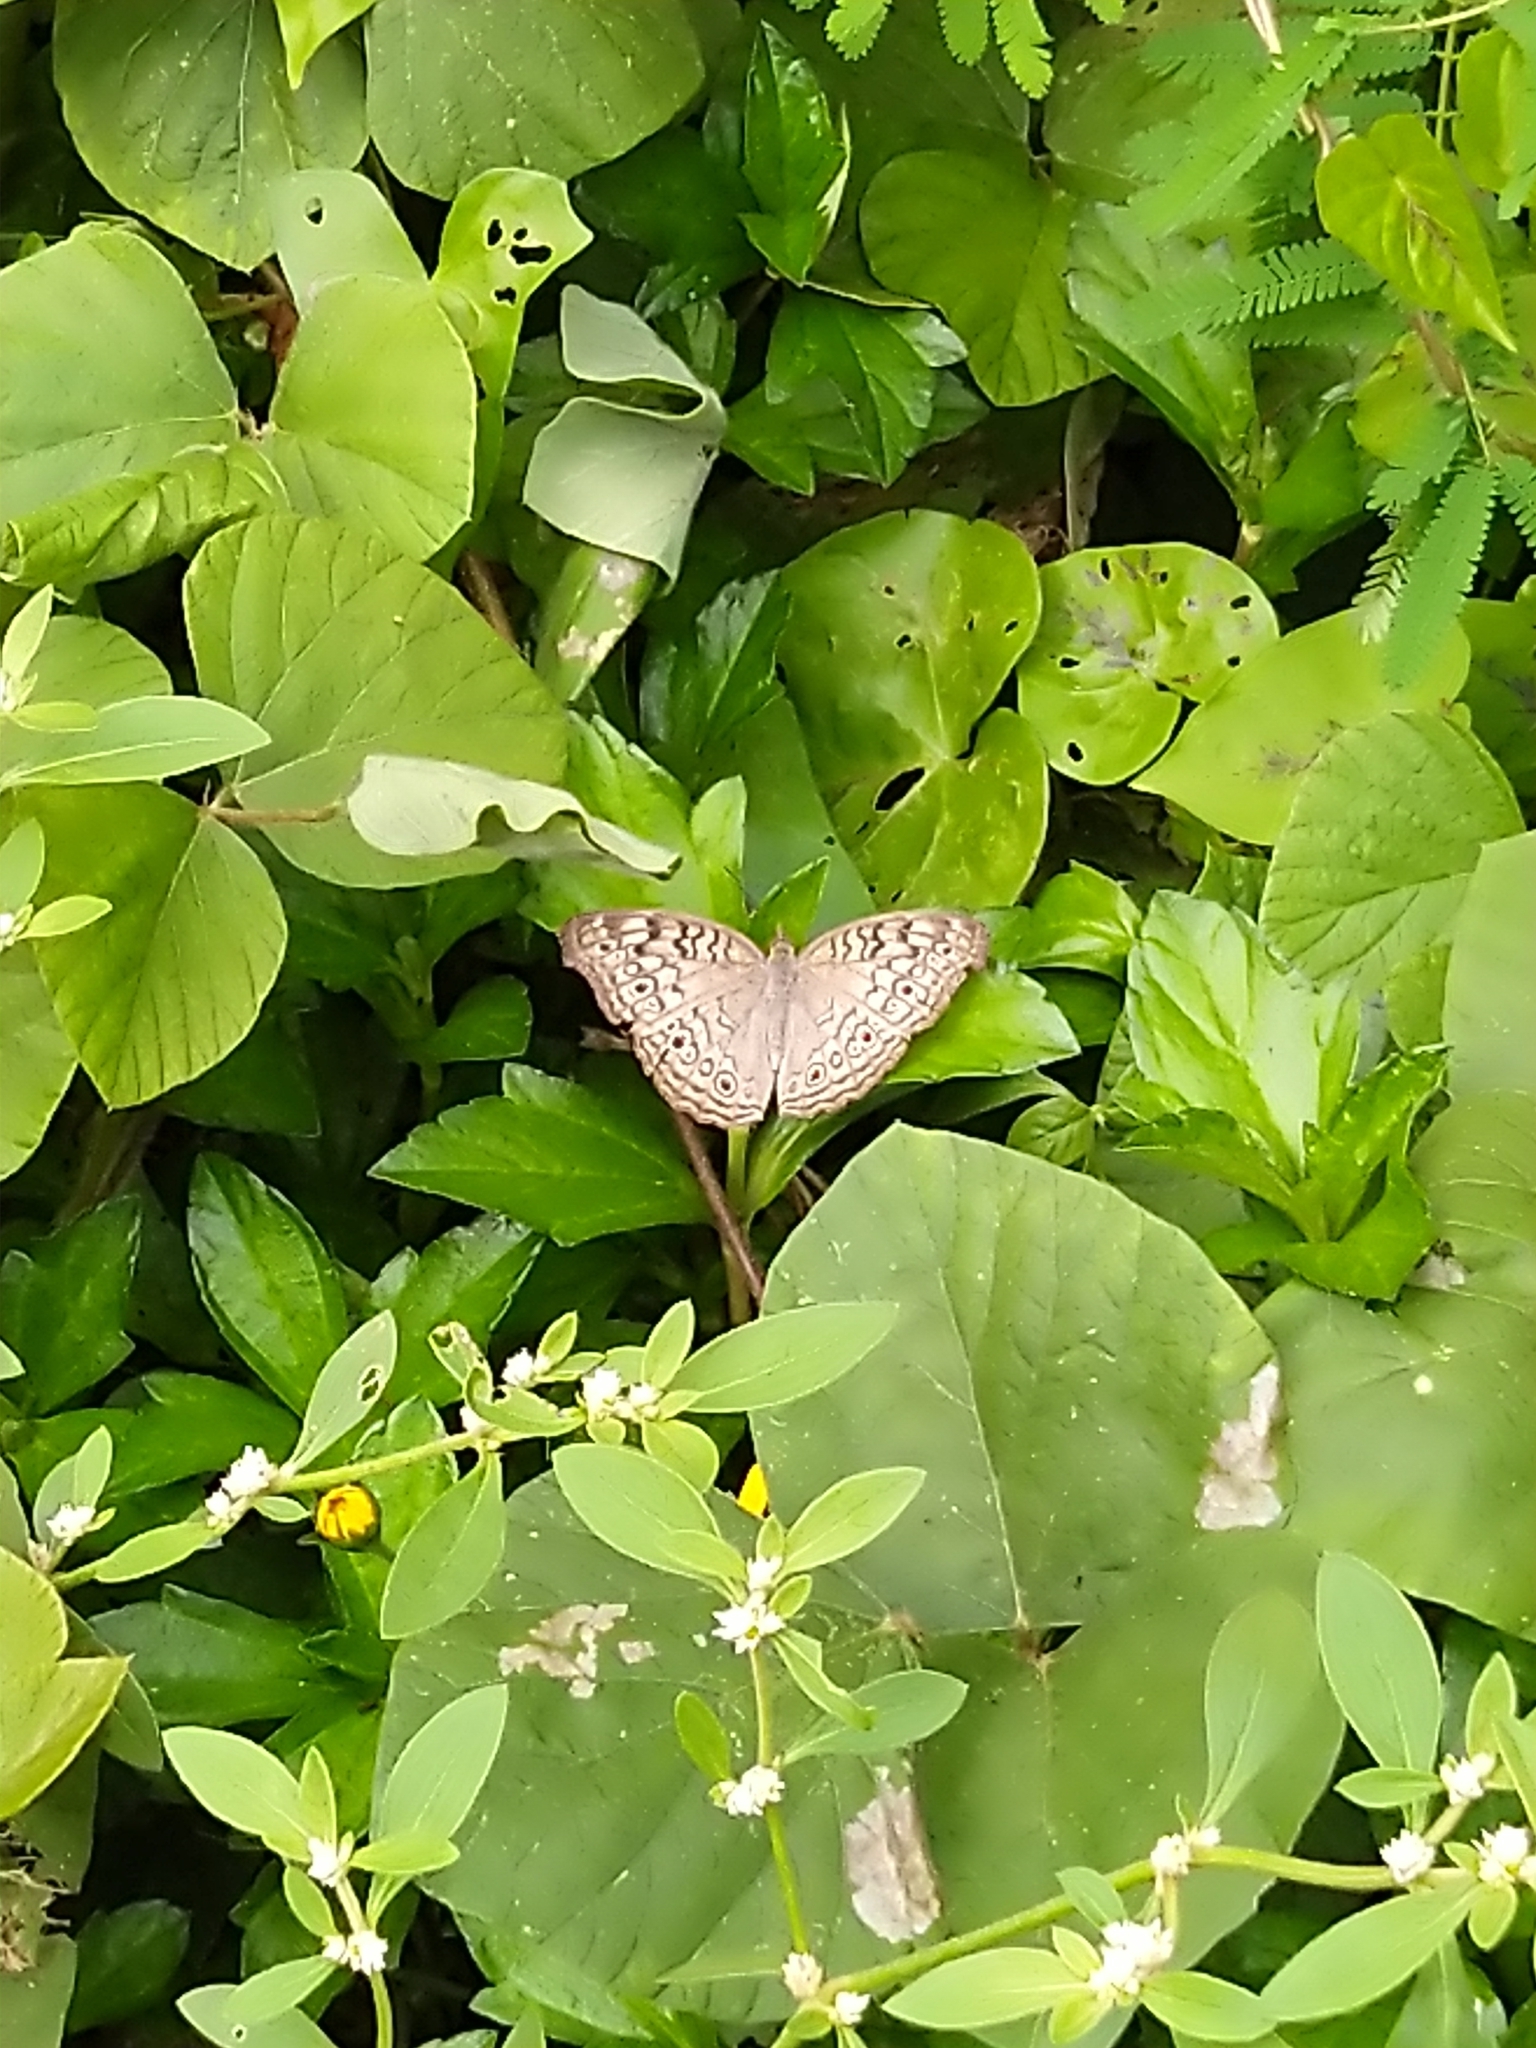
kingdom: Animalia
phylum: Arthropoda
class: Insecta
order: Lepidoptera
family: Nymphalidae
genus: Junonia
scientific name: Junonia atlites
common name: Grey pansy
